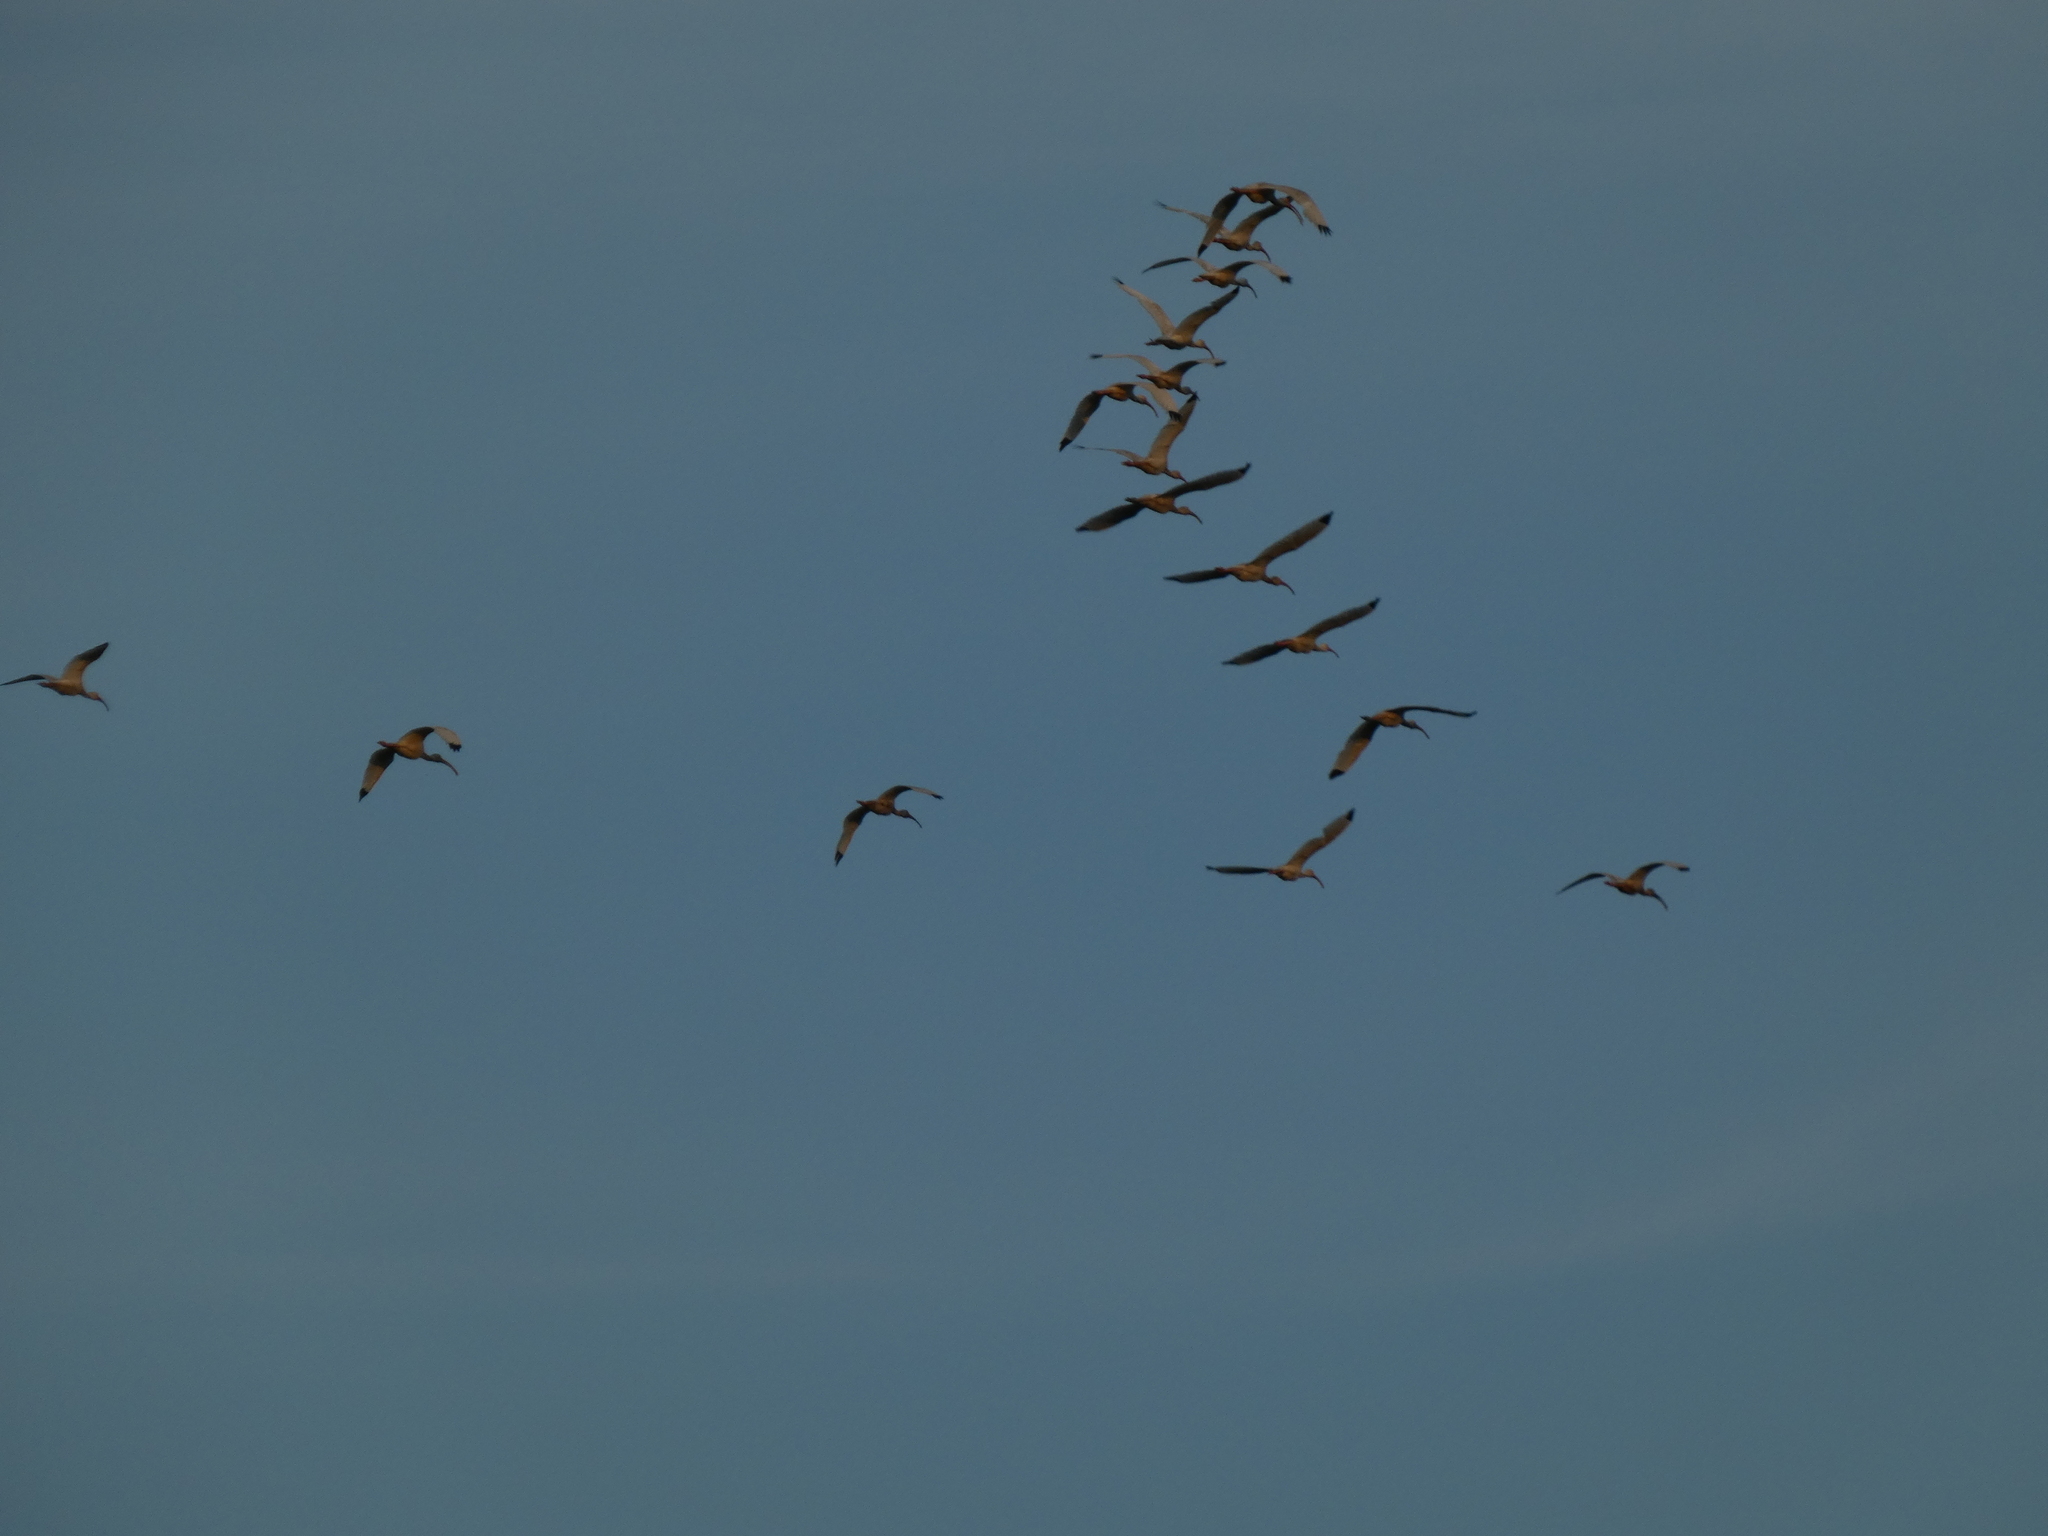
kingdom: Animalia
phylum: Chordata
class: Aves
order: Pelecaniformes
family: Threskiornithidae
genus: Eudocimus
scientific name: Eudocimus albus
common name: White ibis
